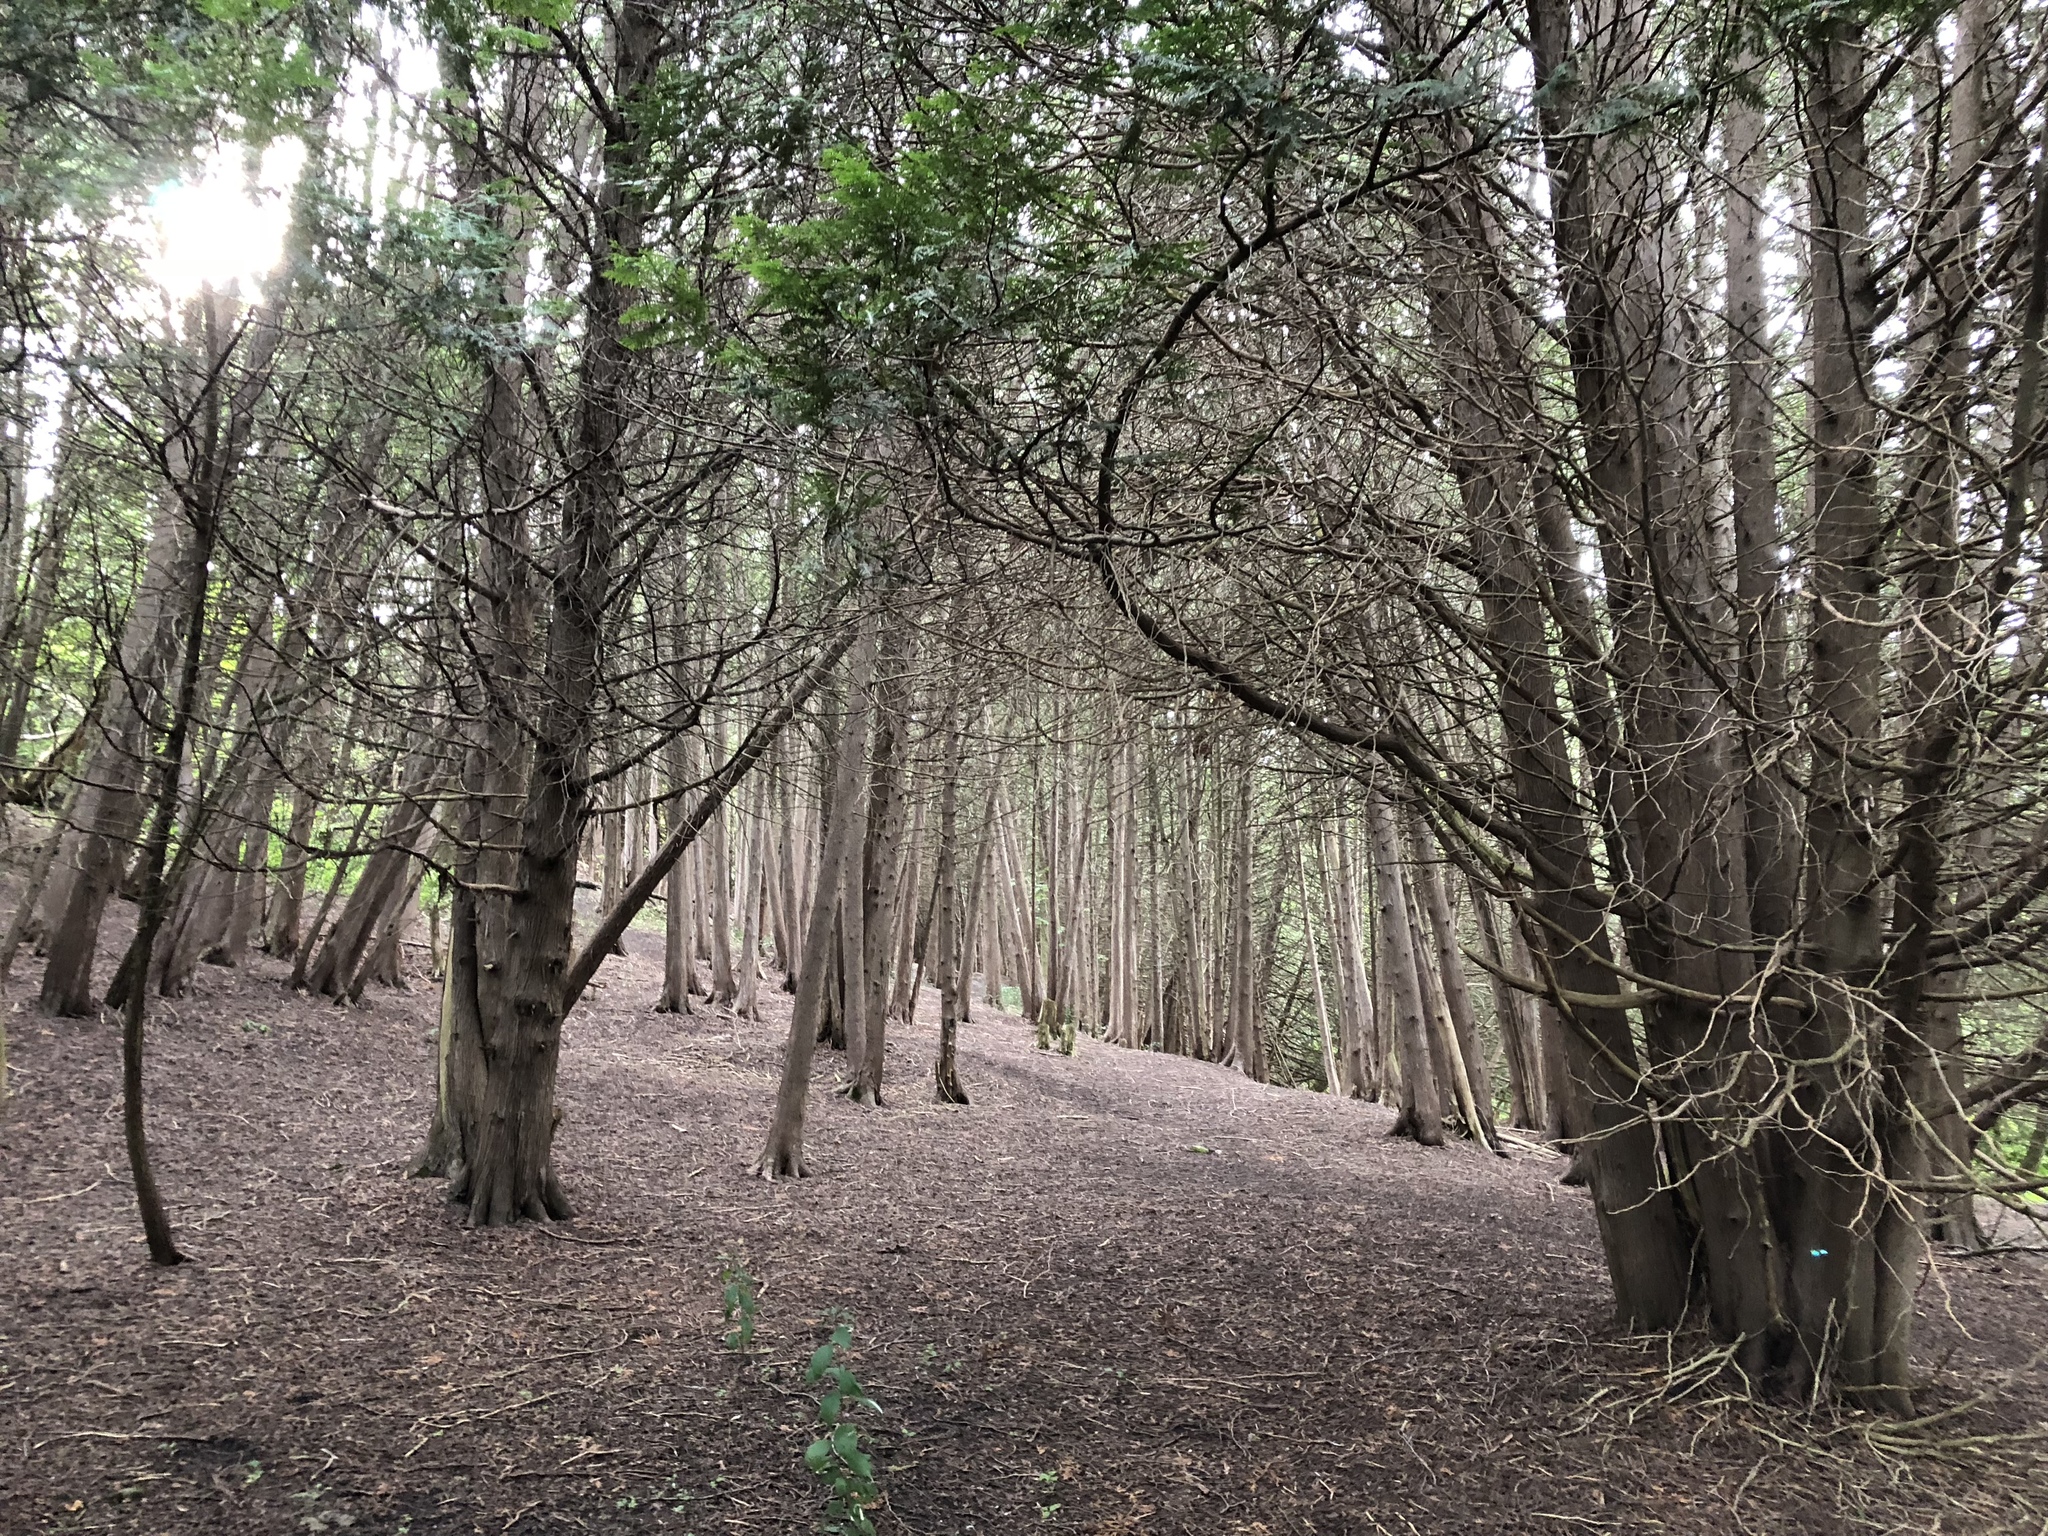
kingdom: Plantae
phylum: Tracheophyta
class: Pinopsida
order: Pinales
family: Cupressaceae
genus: Thuja
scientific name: Thuja occidentalis
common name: Northern white-cedar
